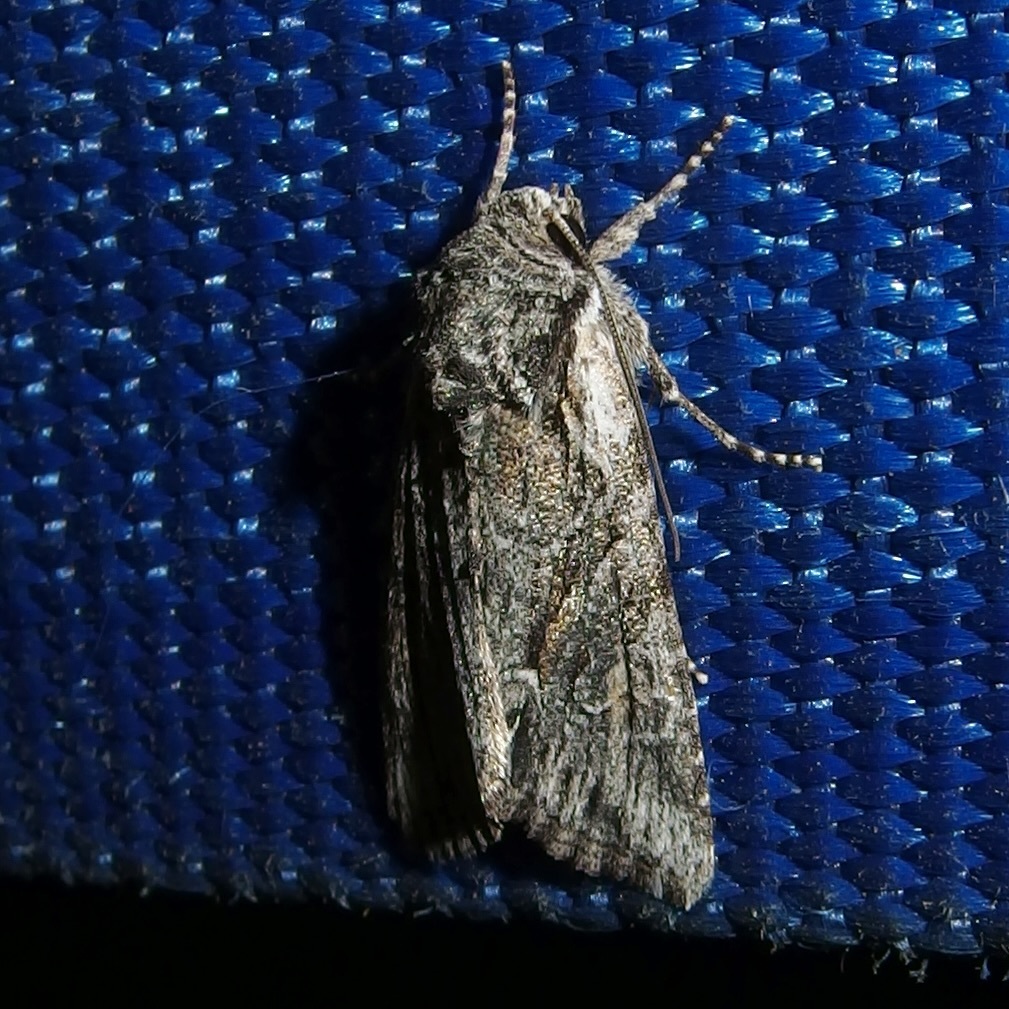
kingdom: Animalia
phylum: Arthropoda
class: Insecta
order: Lepidoptera
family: Noctuidae
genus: Lacinipolia
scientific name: Lacinipolia rodora
